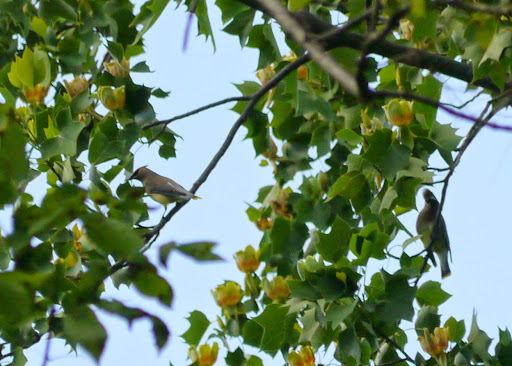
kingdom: Animalia
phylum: Chordata
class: Aves
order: Passeriformes
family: Bombycillidae
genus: Bombycilla
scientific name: Bombycilla cedrorum
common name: Cedar waxwing
